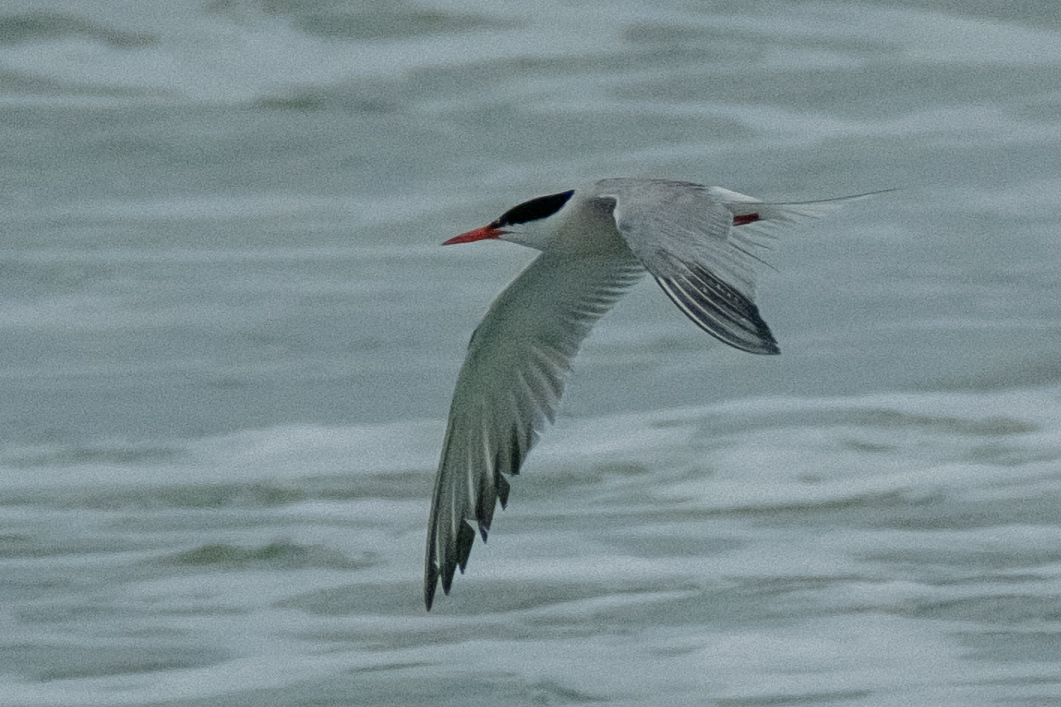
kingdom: Animalia
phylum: Chordata
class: Aves
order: Charadriiformes
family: Laridae
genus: Sterna
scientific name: Sterna hirundo
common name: Common tern
